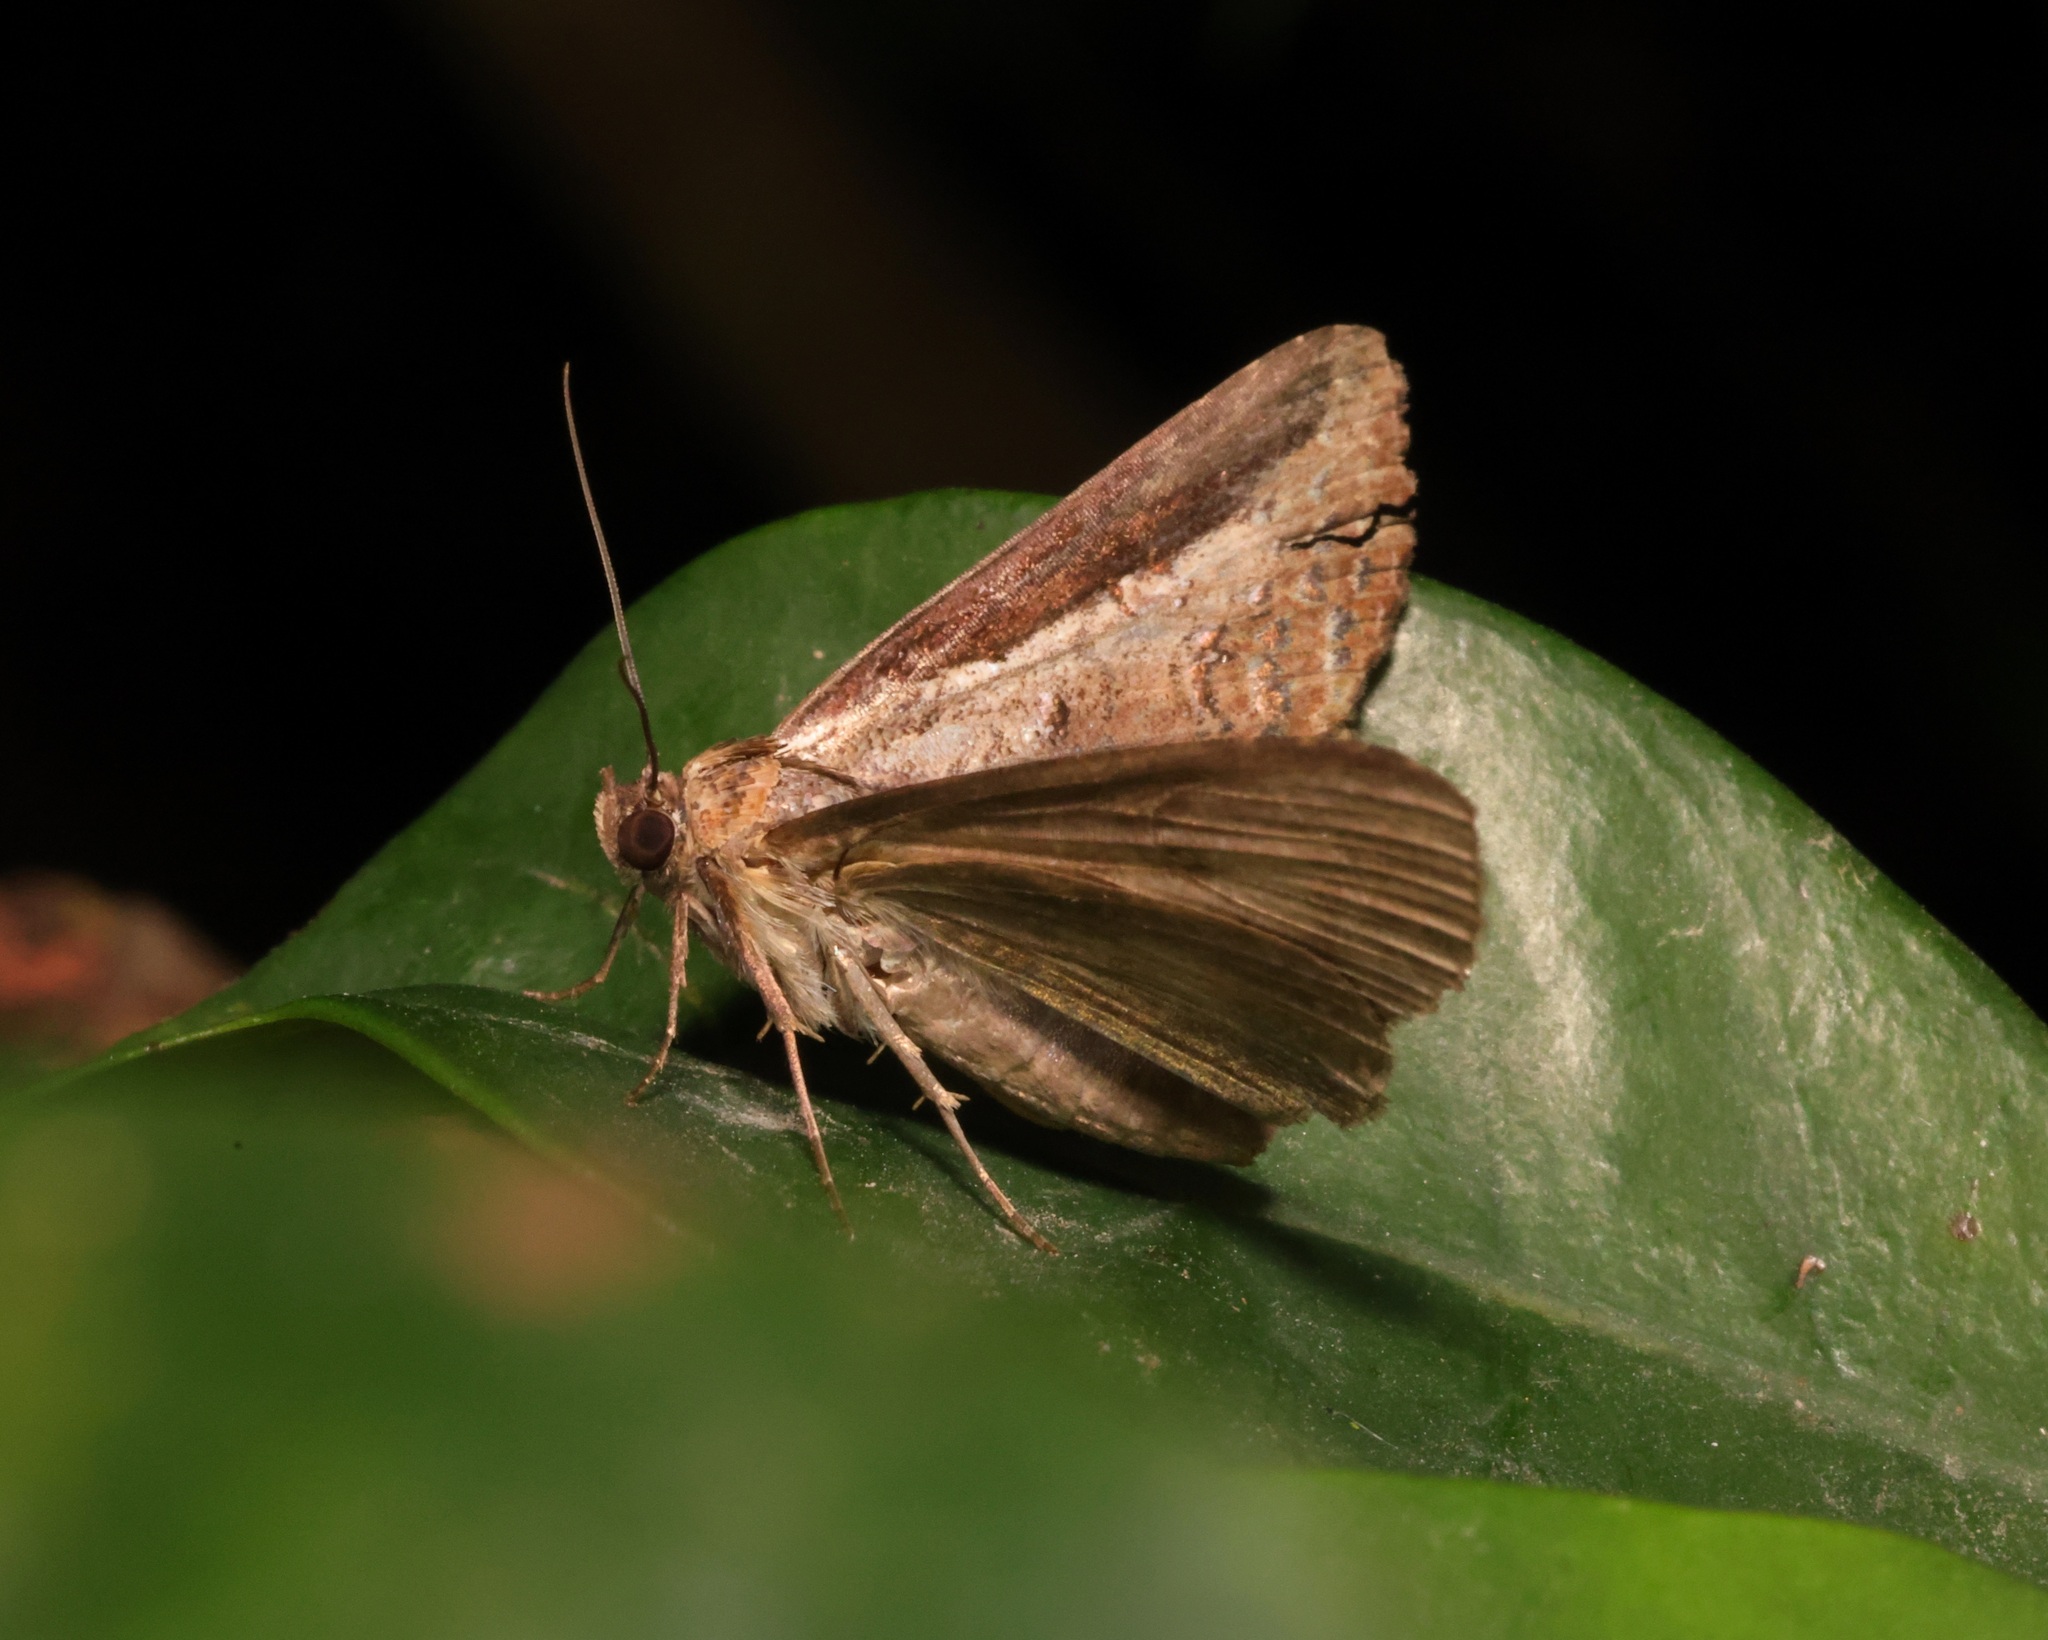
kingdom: Animalia
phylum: Arthropoda
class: Insecta
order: Lepidoptera
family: Euteliidae
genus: Lophoptera
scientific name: Lophoptera squammigera
